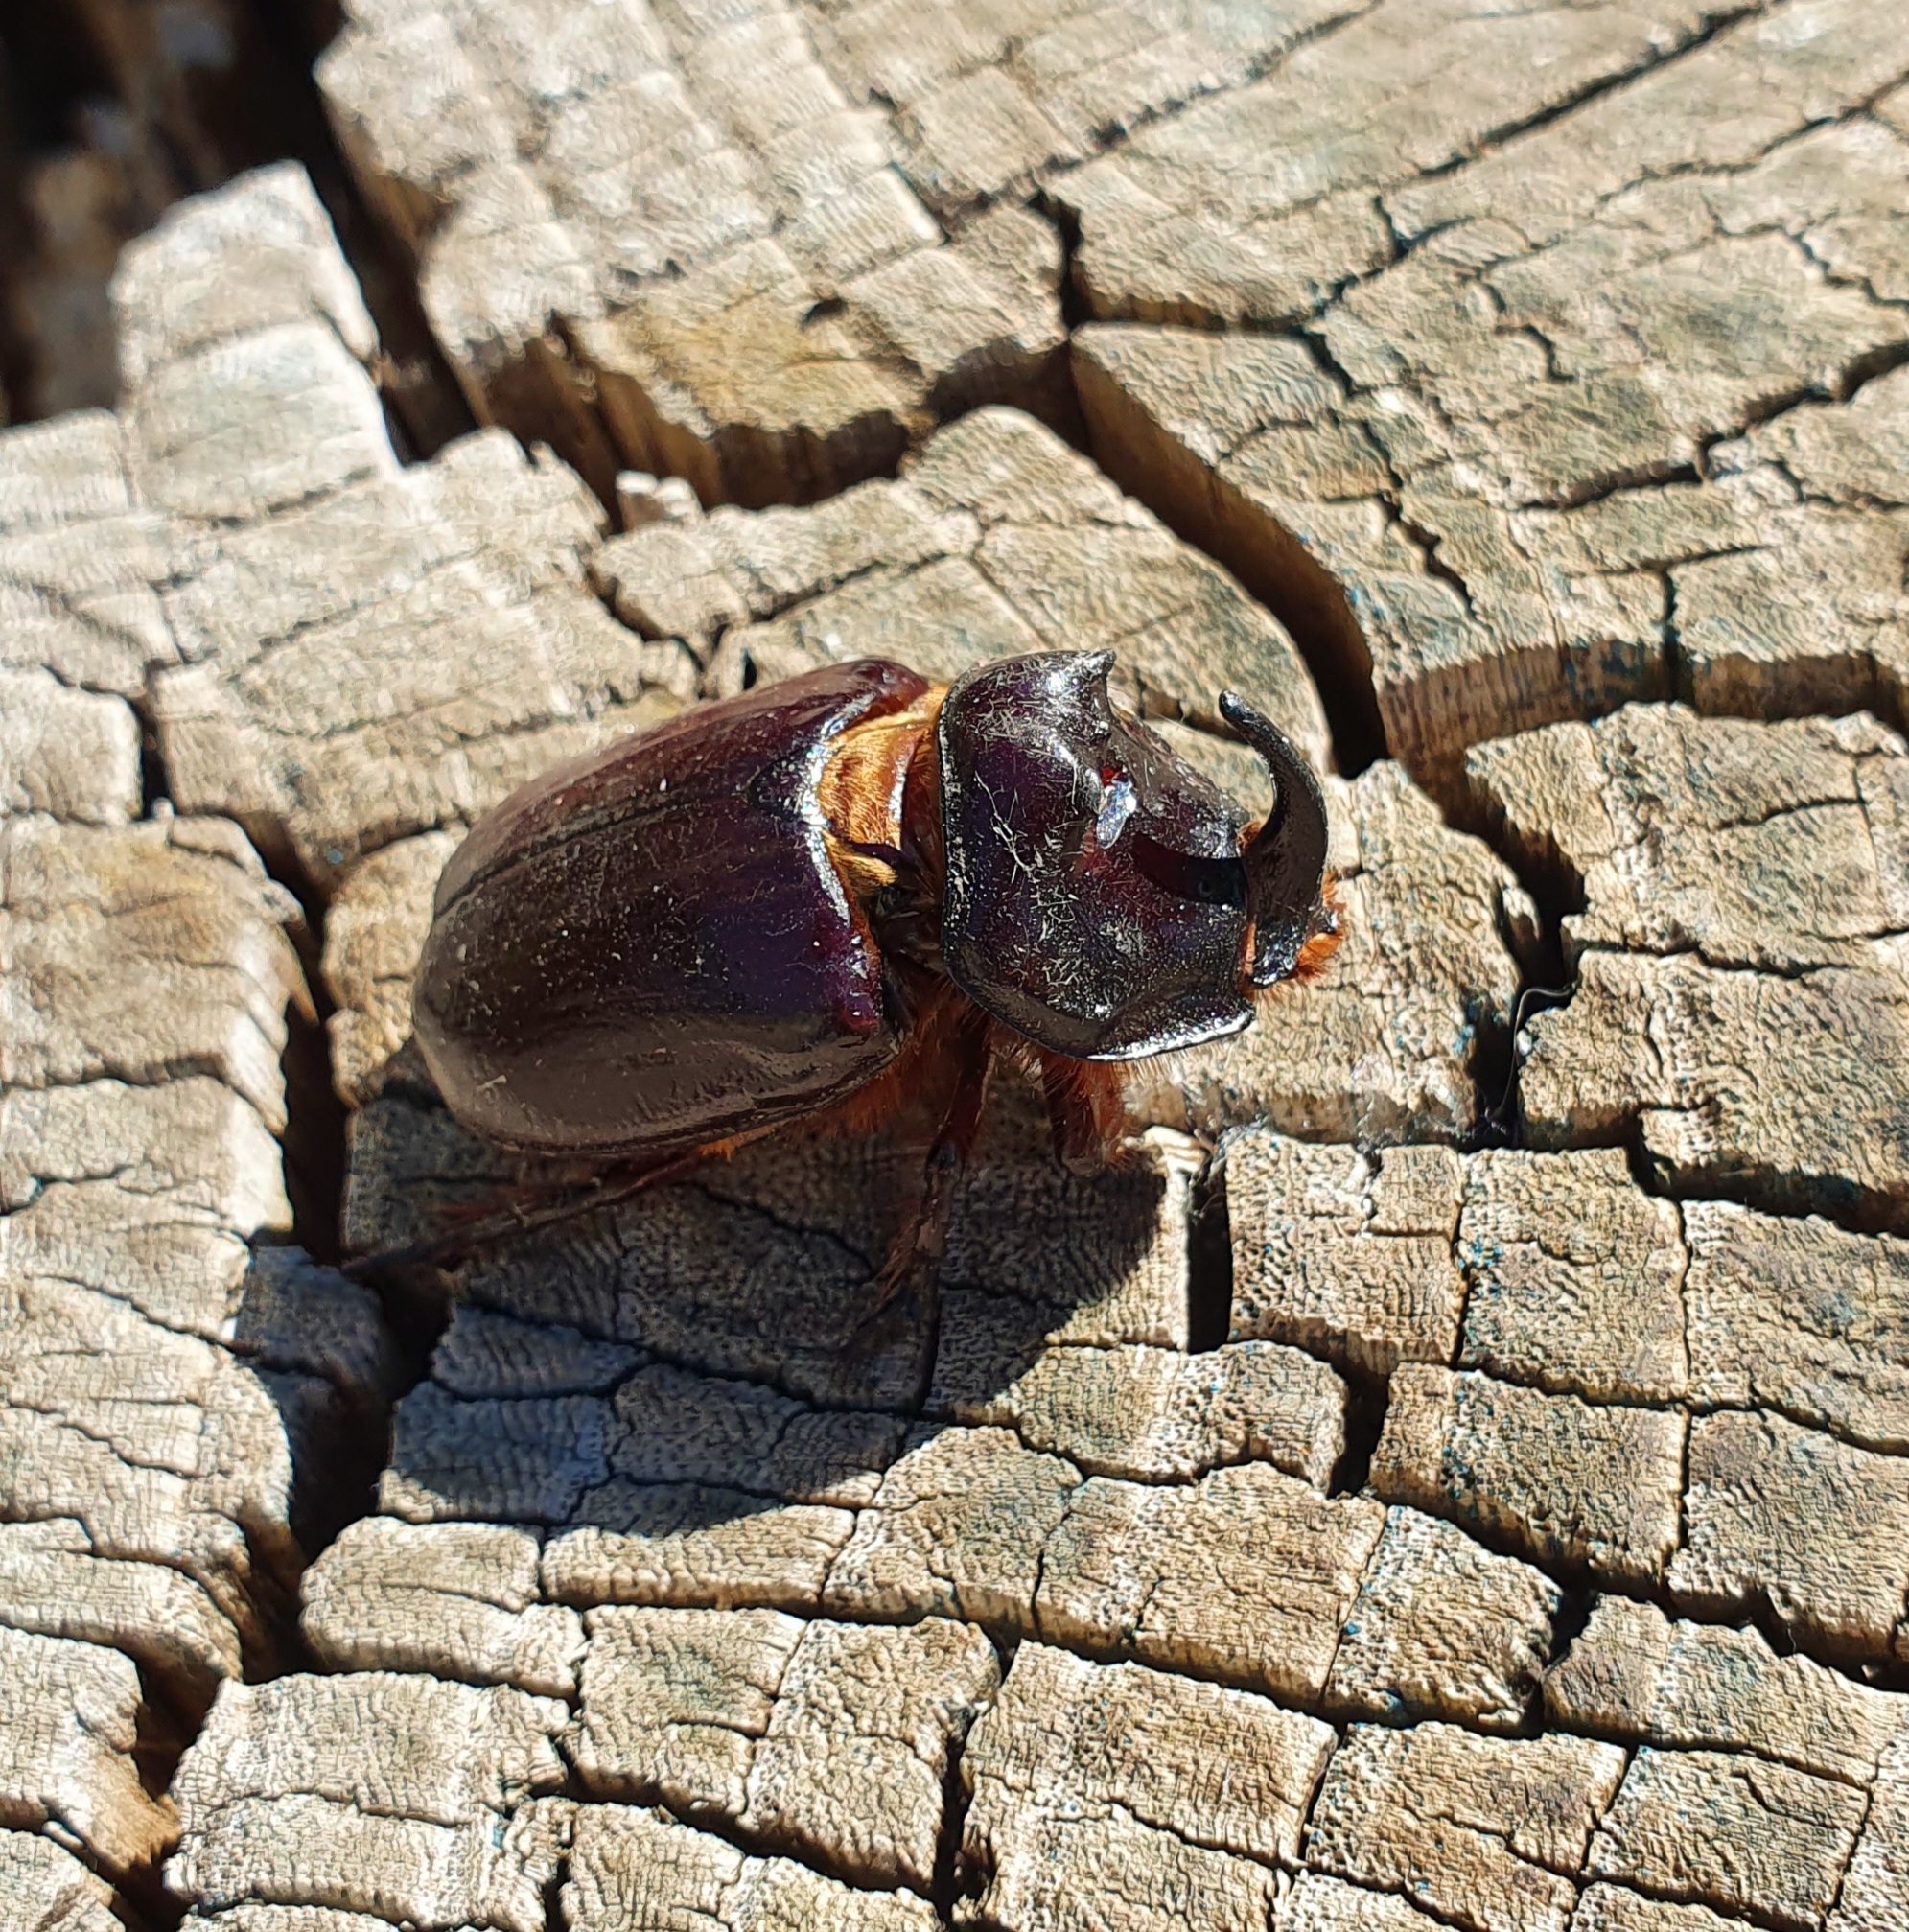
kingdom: Animalia
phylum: Arthropoda
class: Insecta
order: Coleoptera
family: Scarabaeidae
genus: Oryctes
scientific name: Oryctes nasicornis
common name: European rhinoceros beetle
